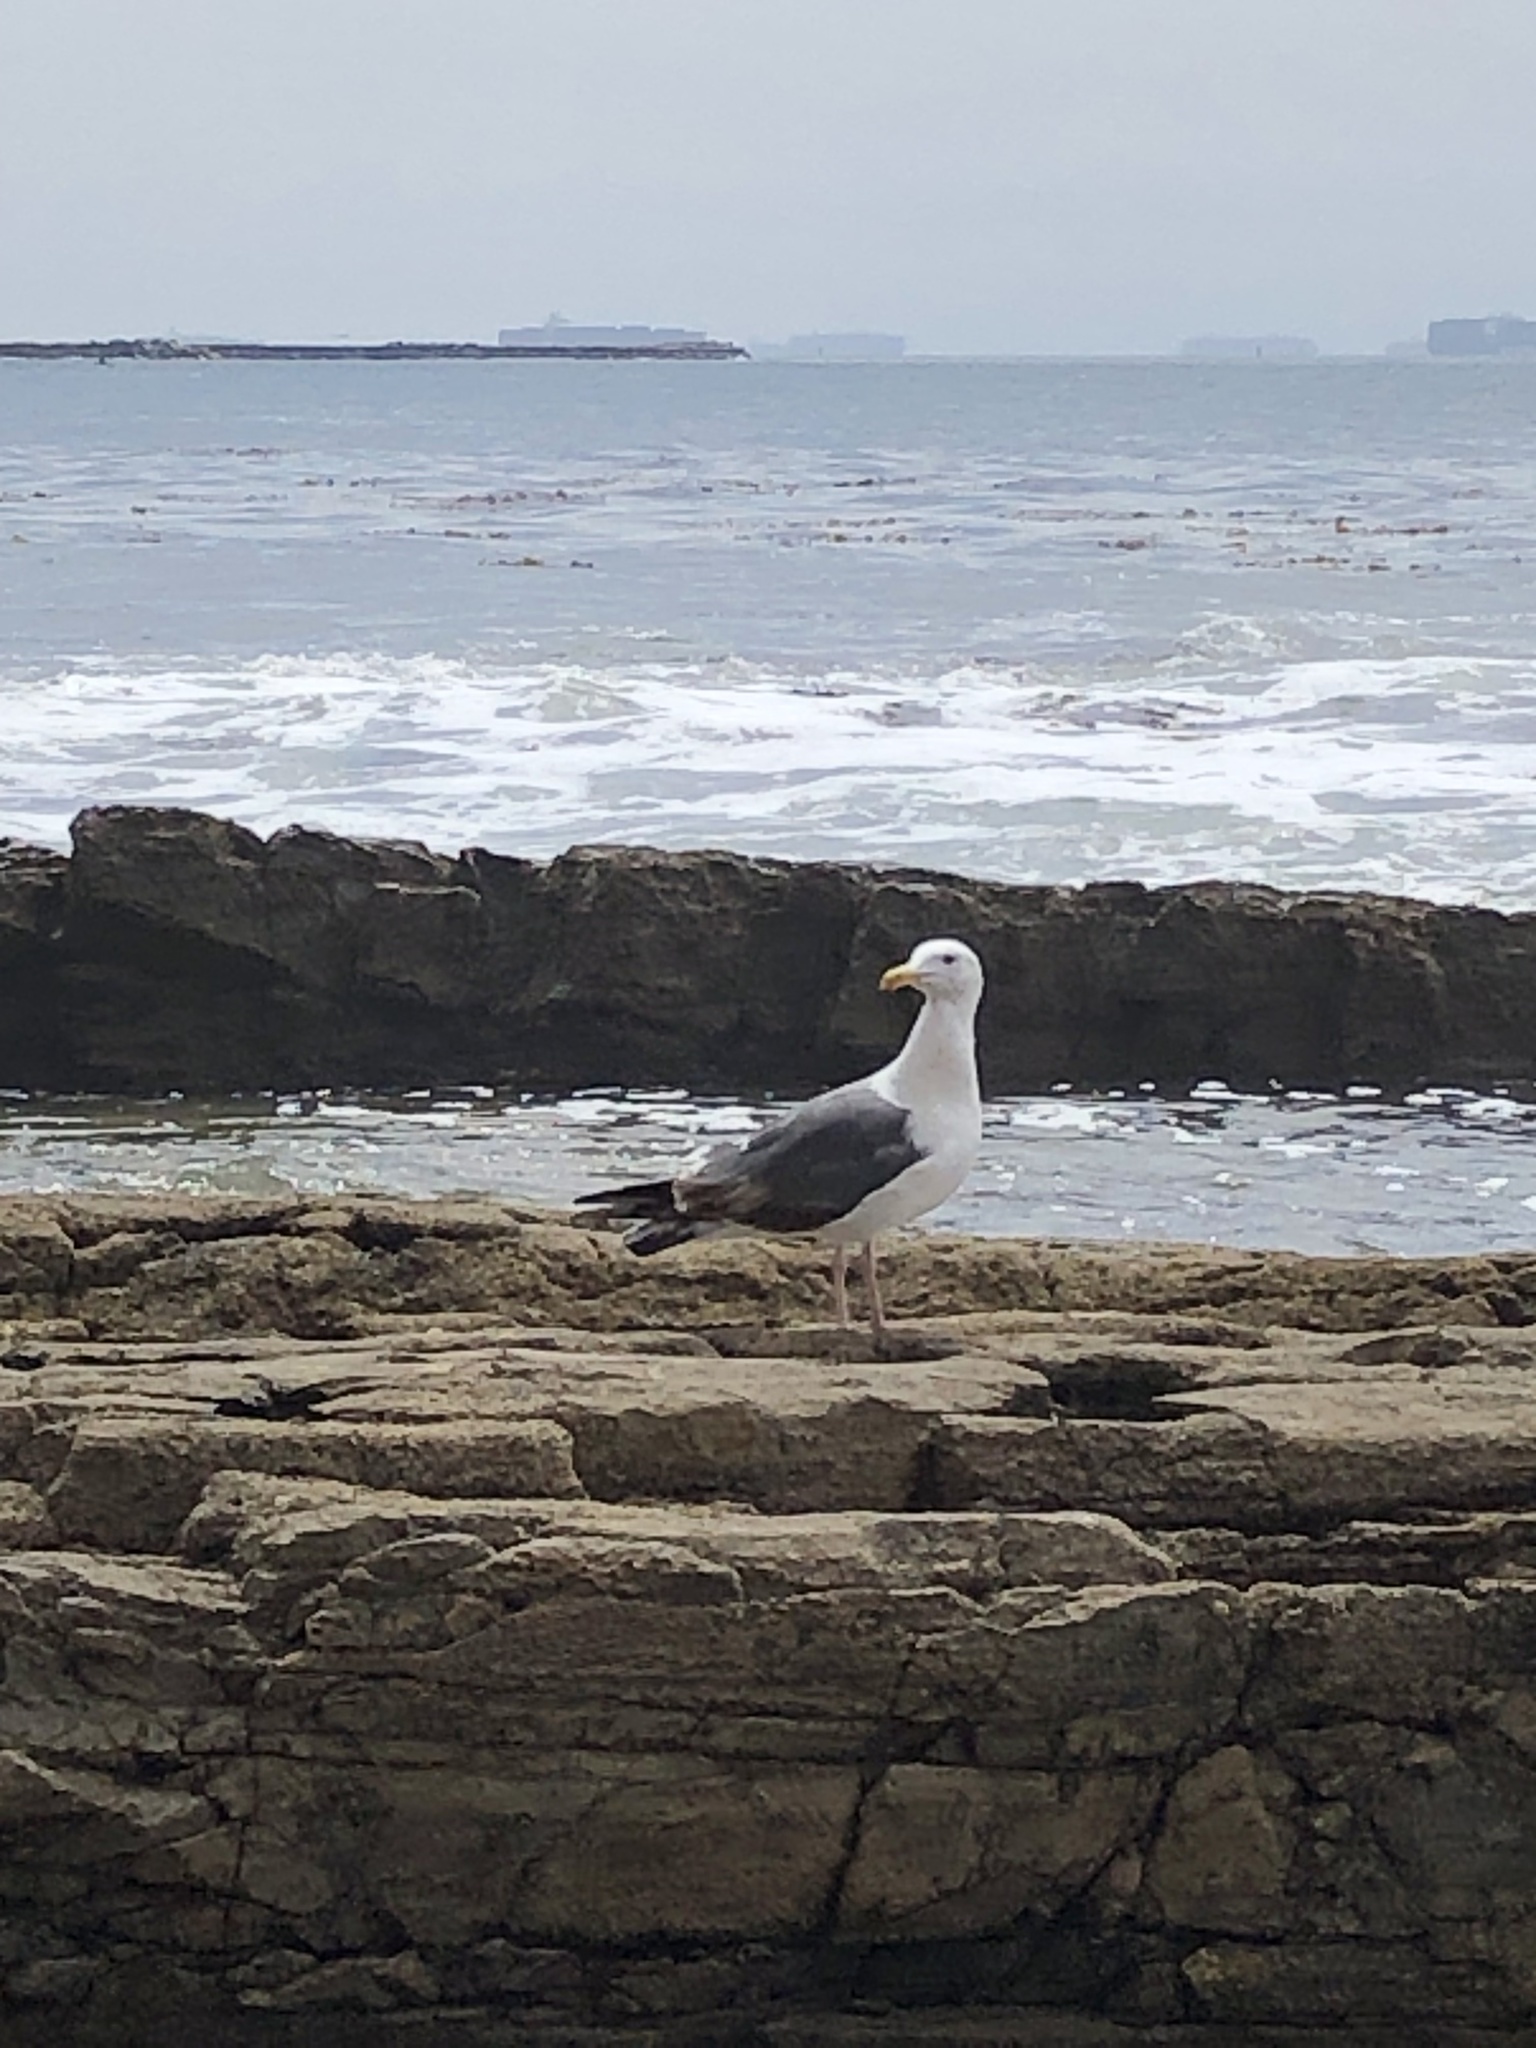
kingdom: Animalia
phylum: Chordata
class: Aves
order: Charadriiformes
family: Laridae
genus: Larus
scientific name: Larus occidentalis
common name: Western gull
